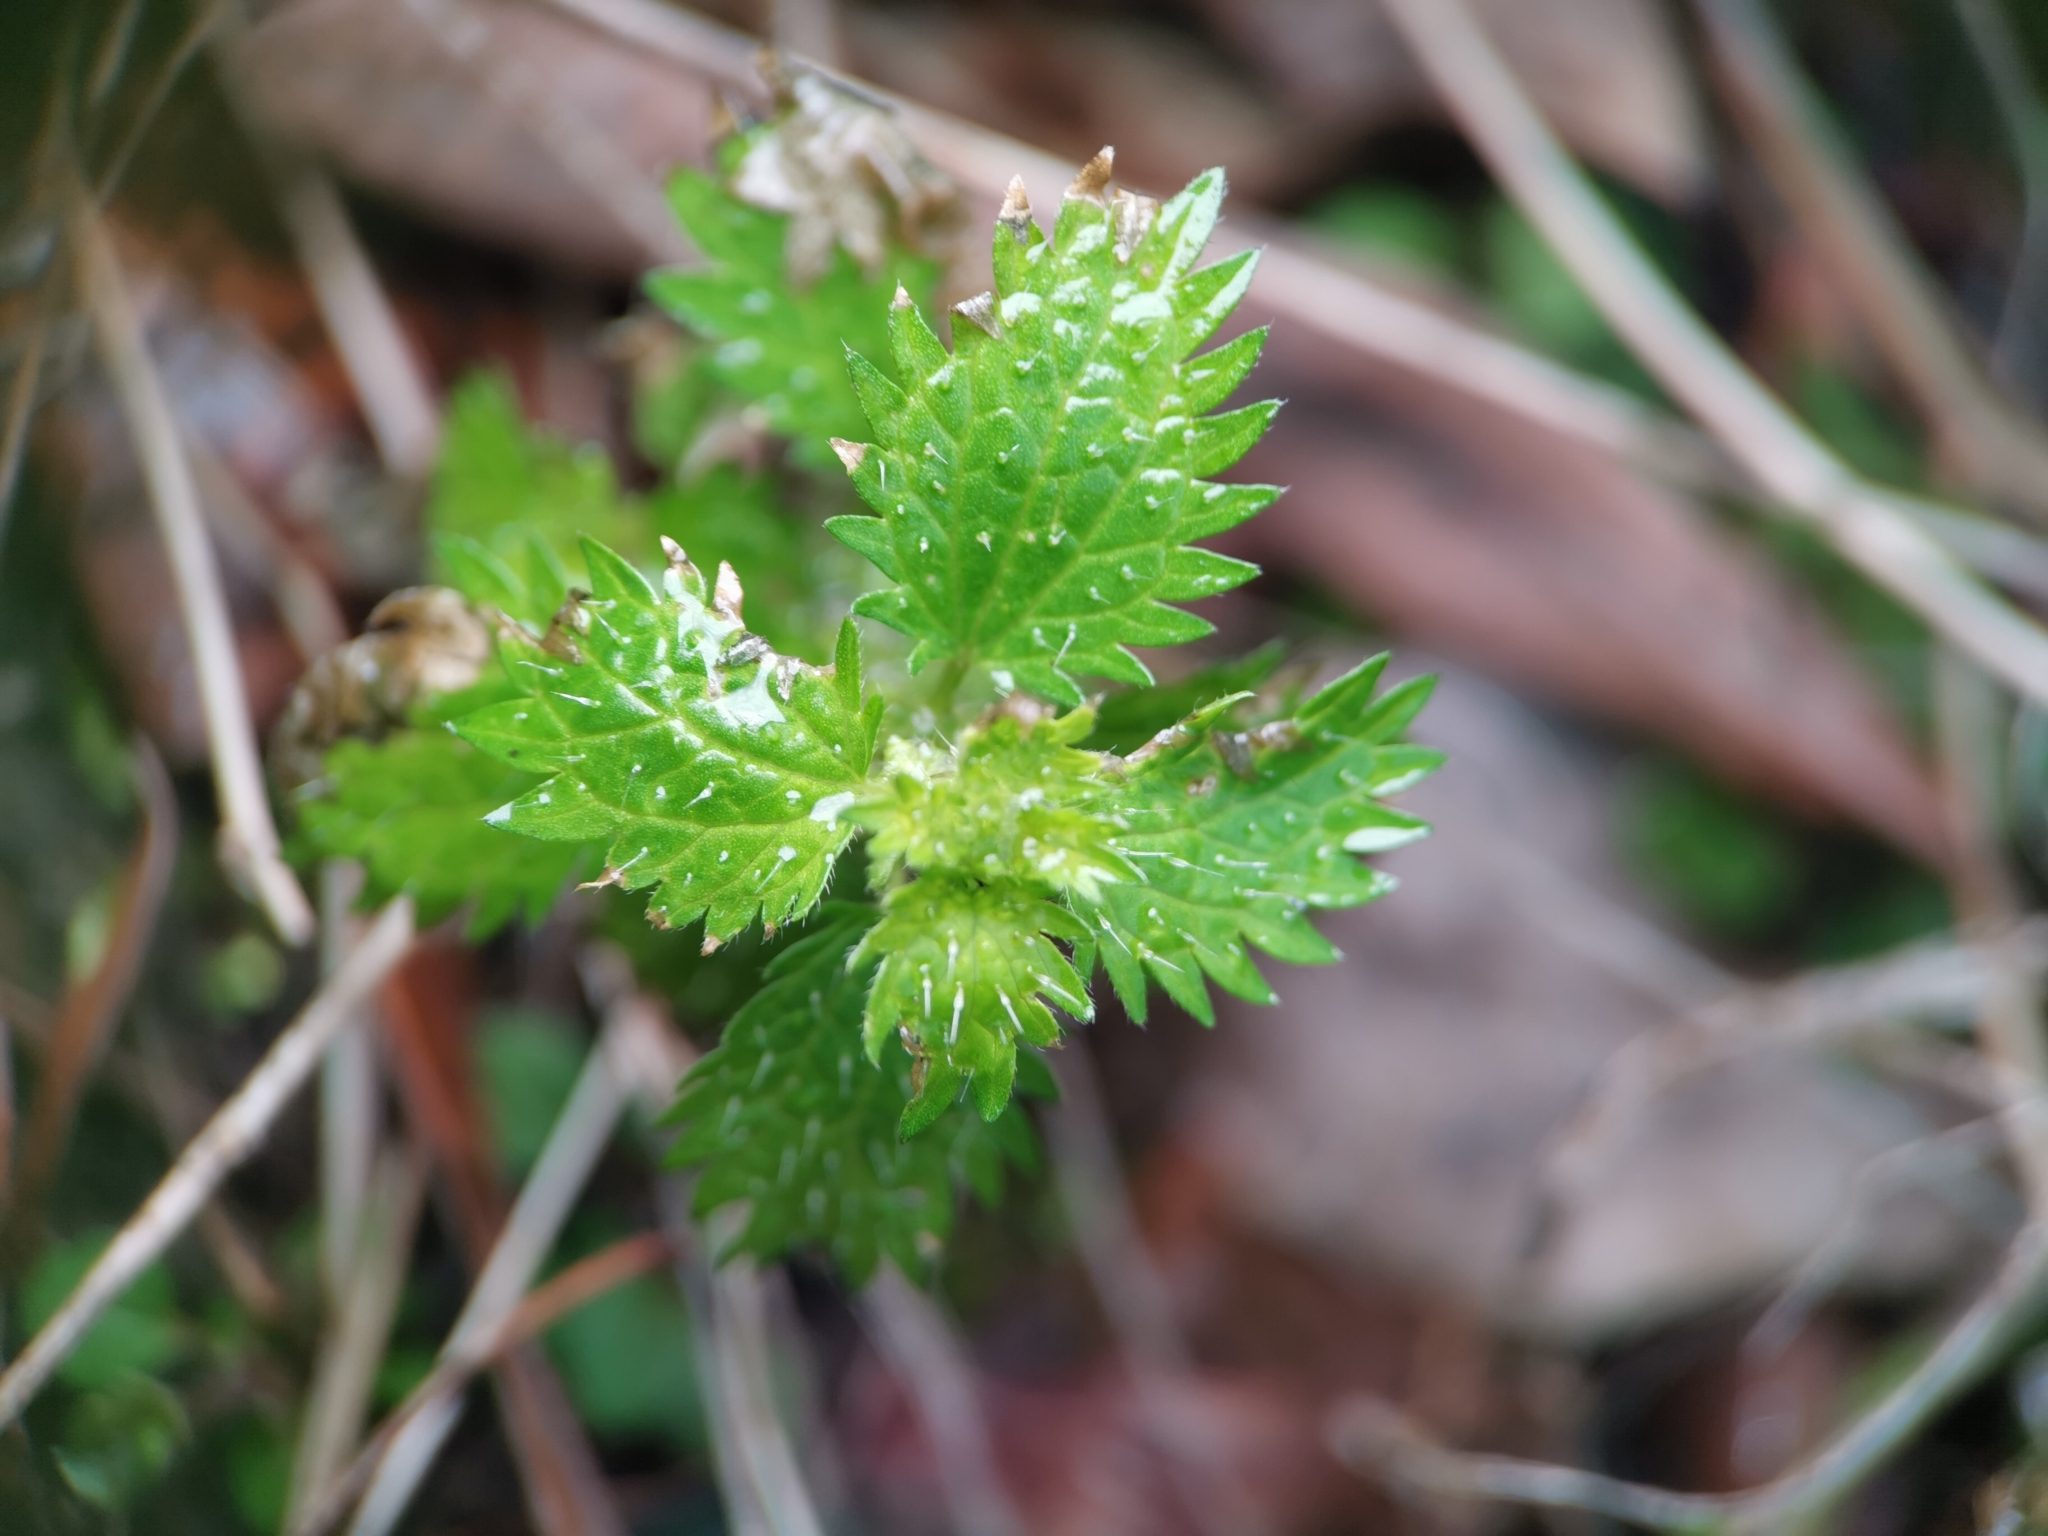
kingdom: Plantae
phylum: Tracheophyta
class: Magnoliopsida
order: Rosales
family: Urticaceae
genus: Urtica
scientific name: Urtica urens
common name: Dwarf nettle
